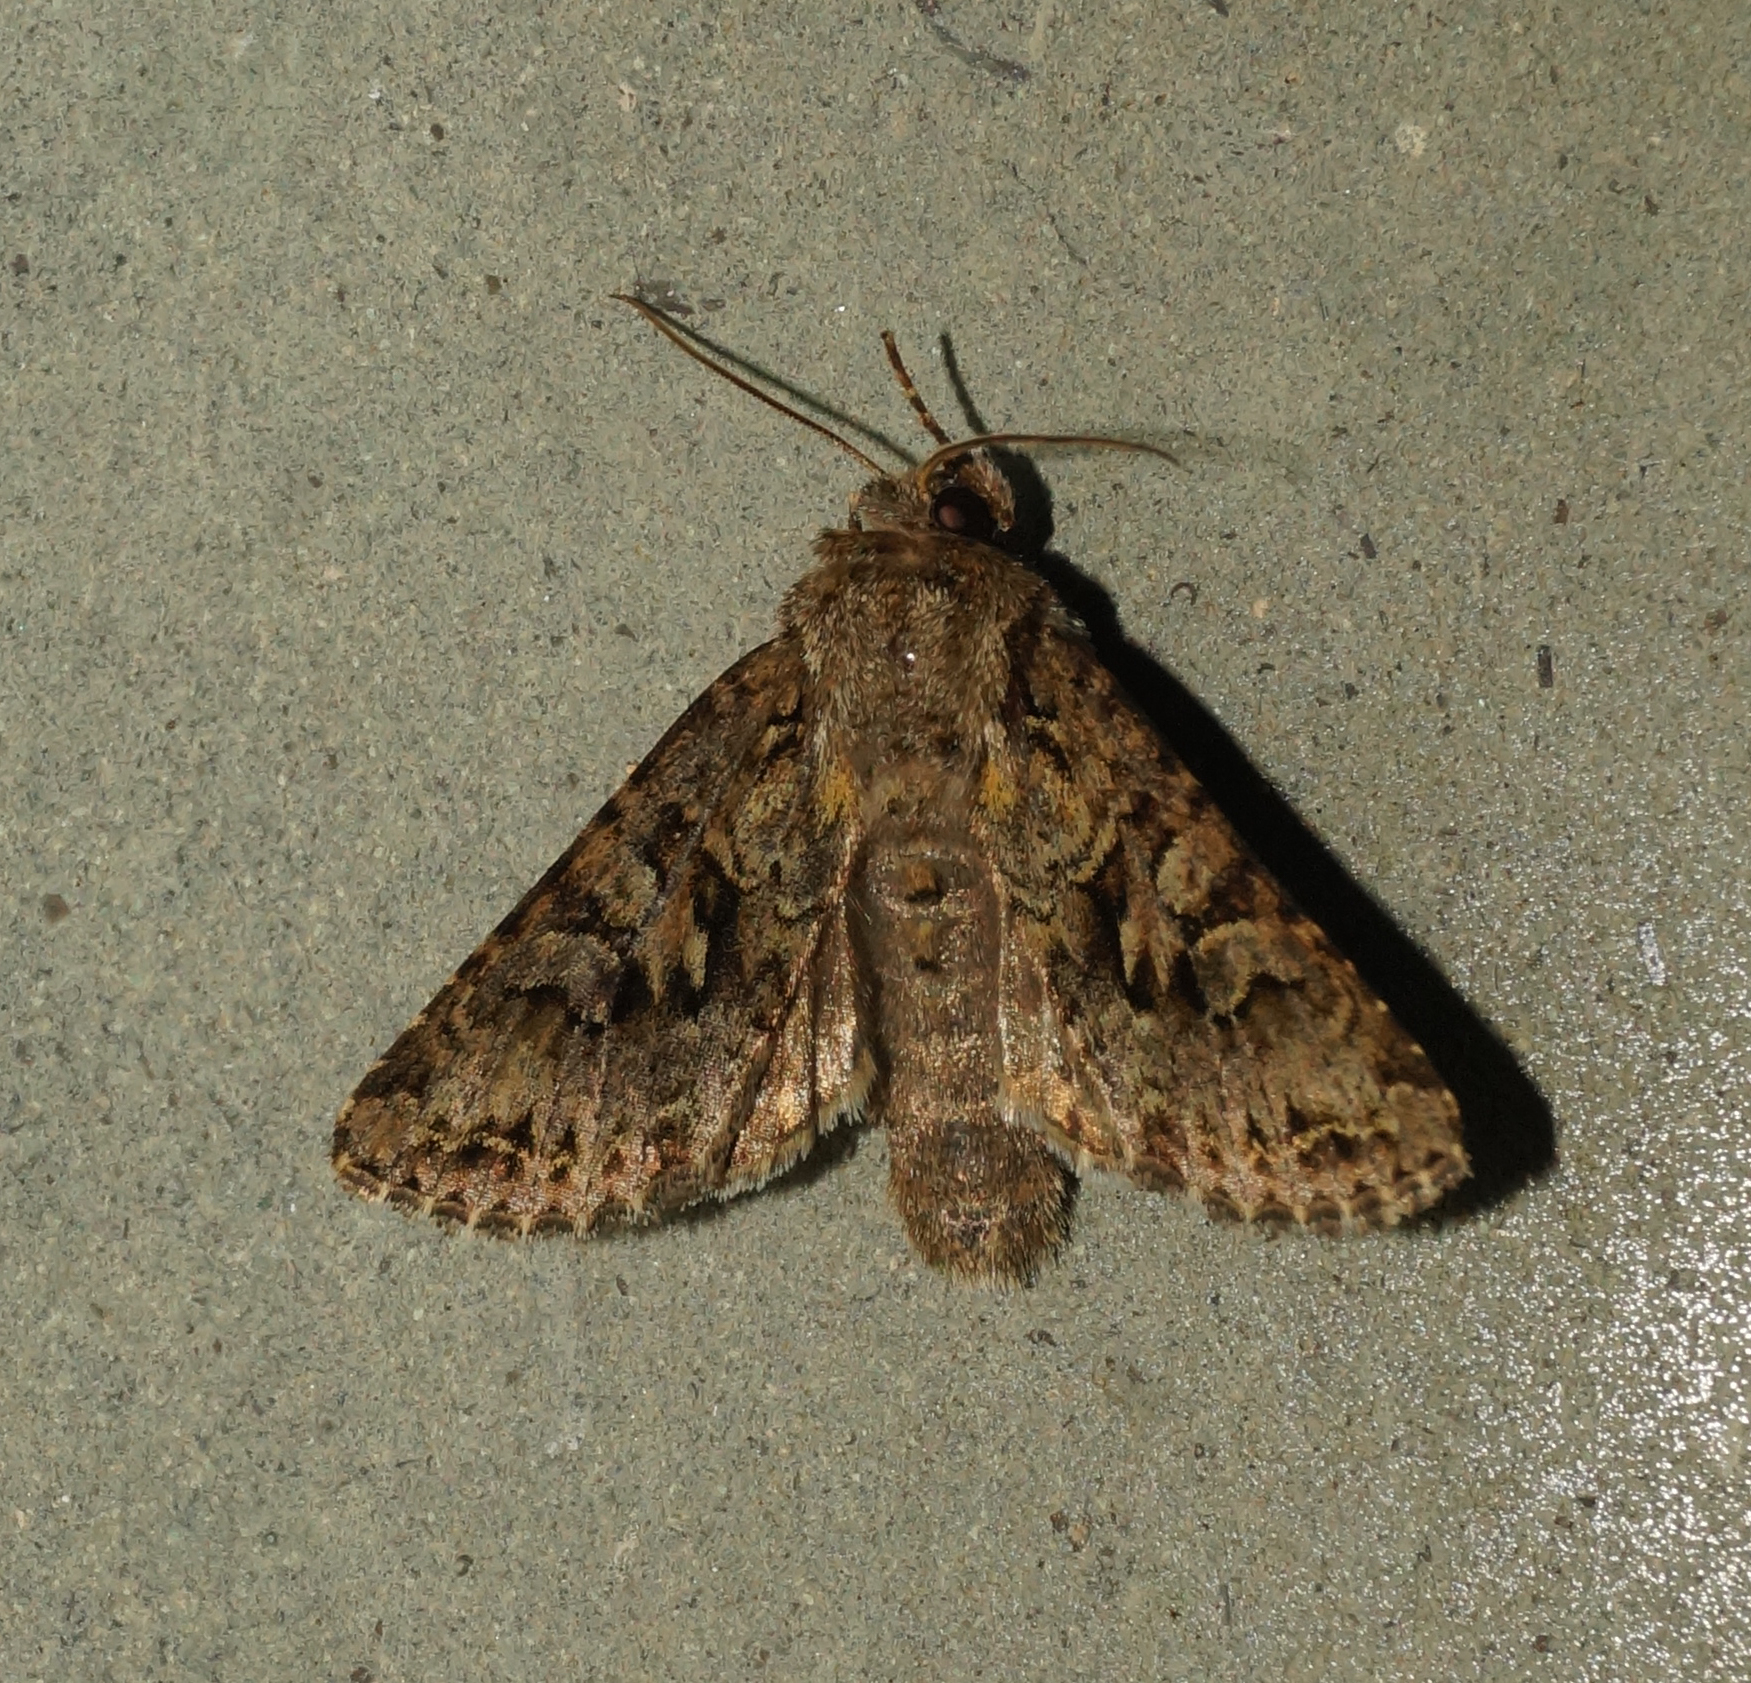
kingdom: Animalia
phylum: Arthropoda
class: Insecta
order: Lepidoptera
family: Noctuidae
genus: Hada
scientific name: Hada plebeja
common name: Shears
